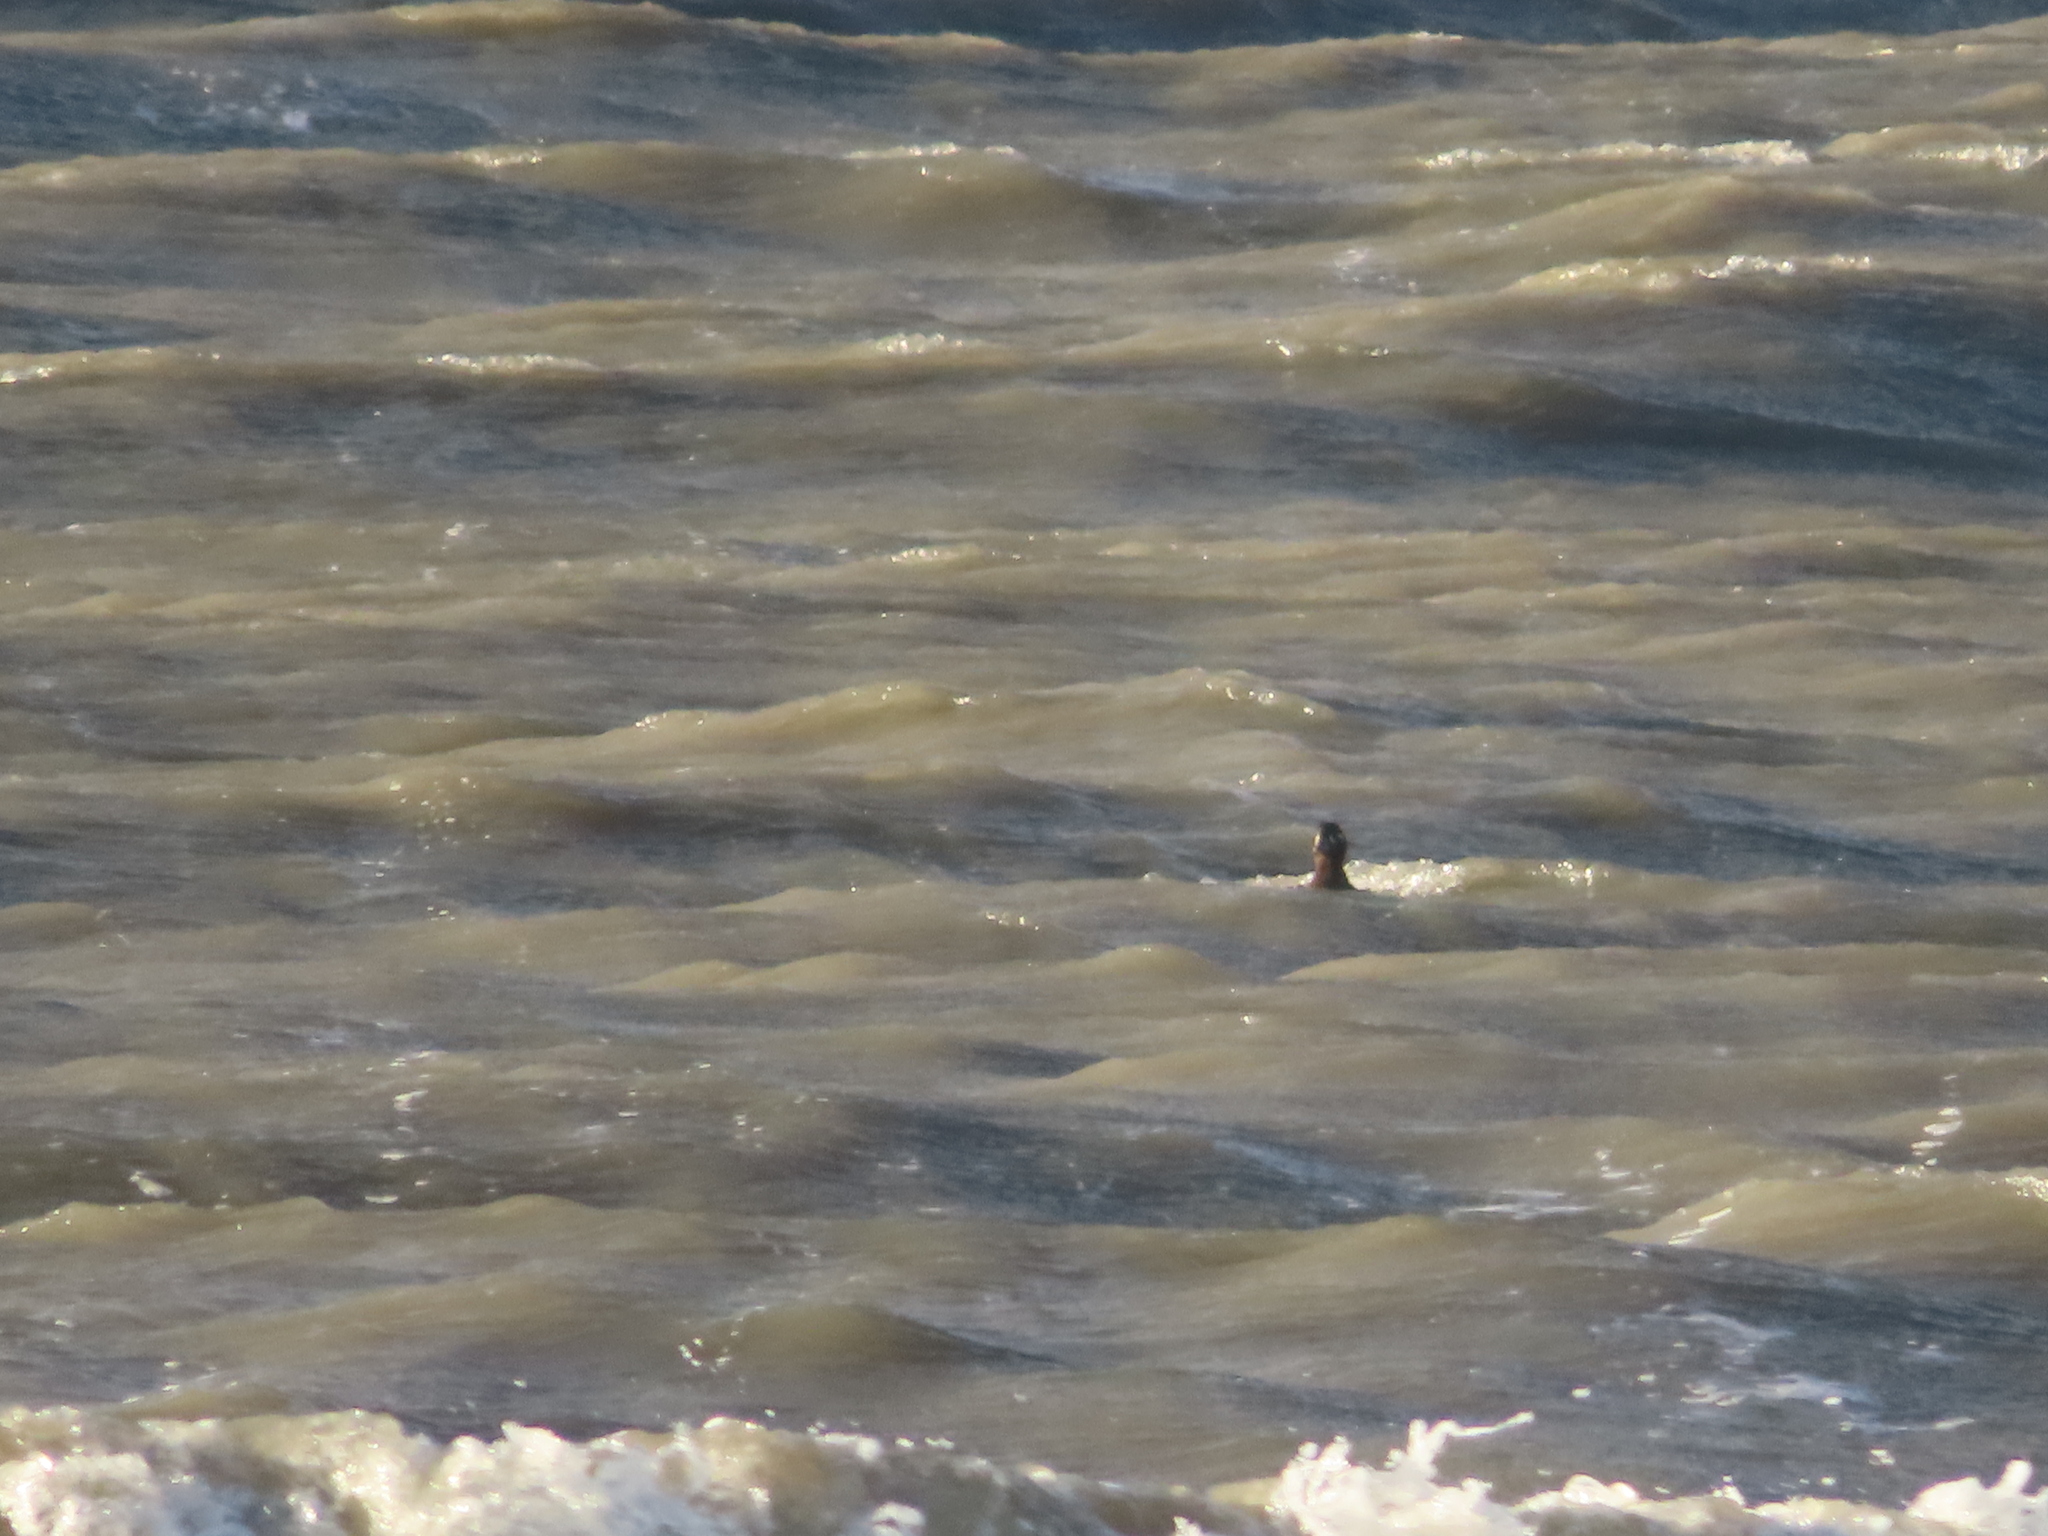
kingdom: Animalia
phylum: Chordata
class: Aves
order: Anseriformes
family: Anatidae
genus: Melanitta
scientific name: Melanitta perspicillata
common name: Surf scoter
